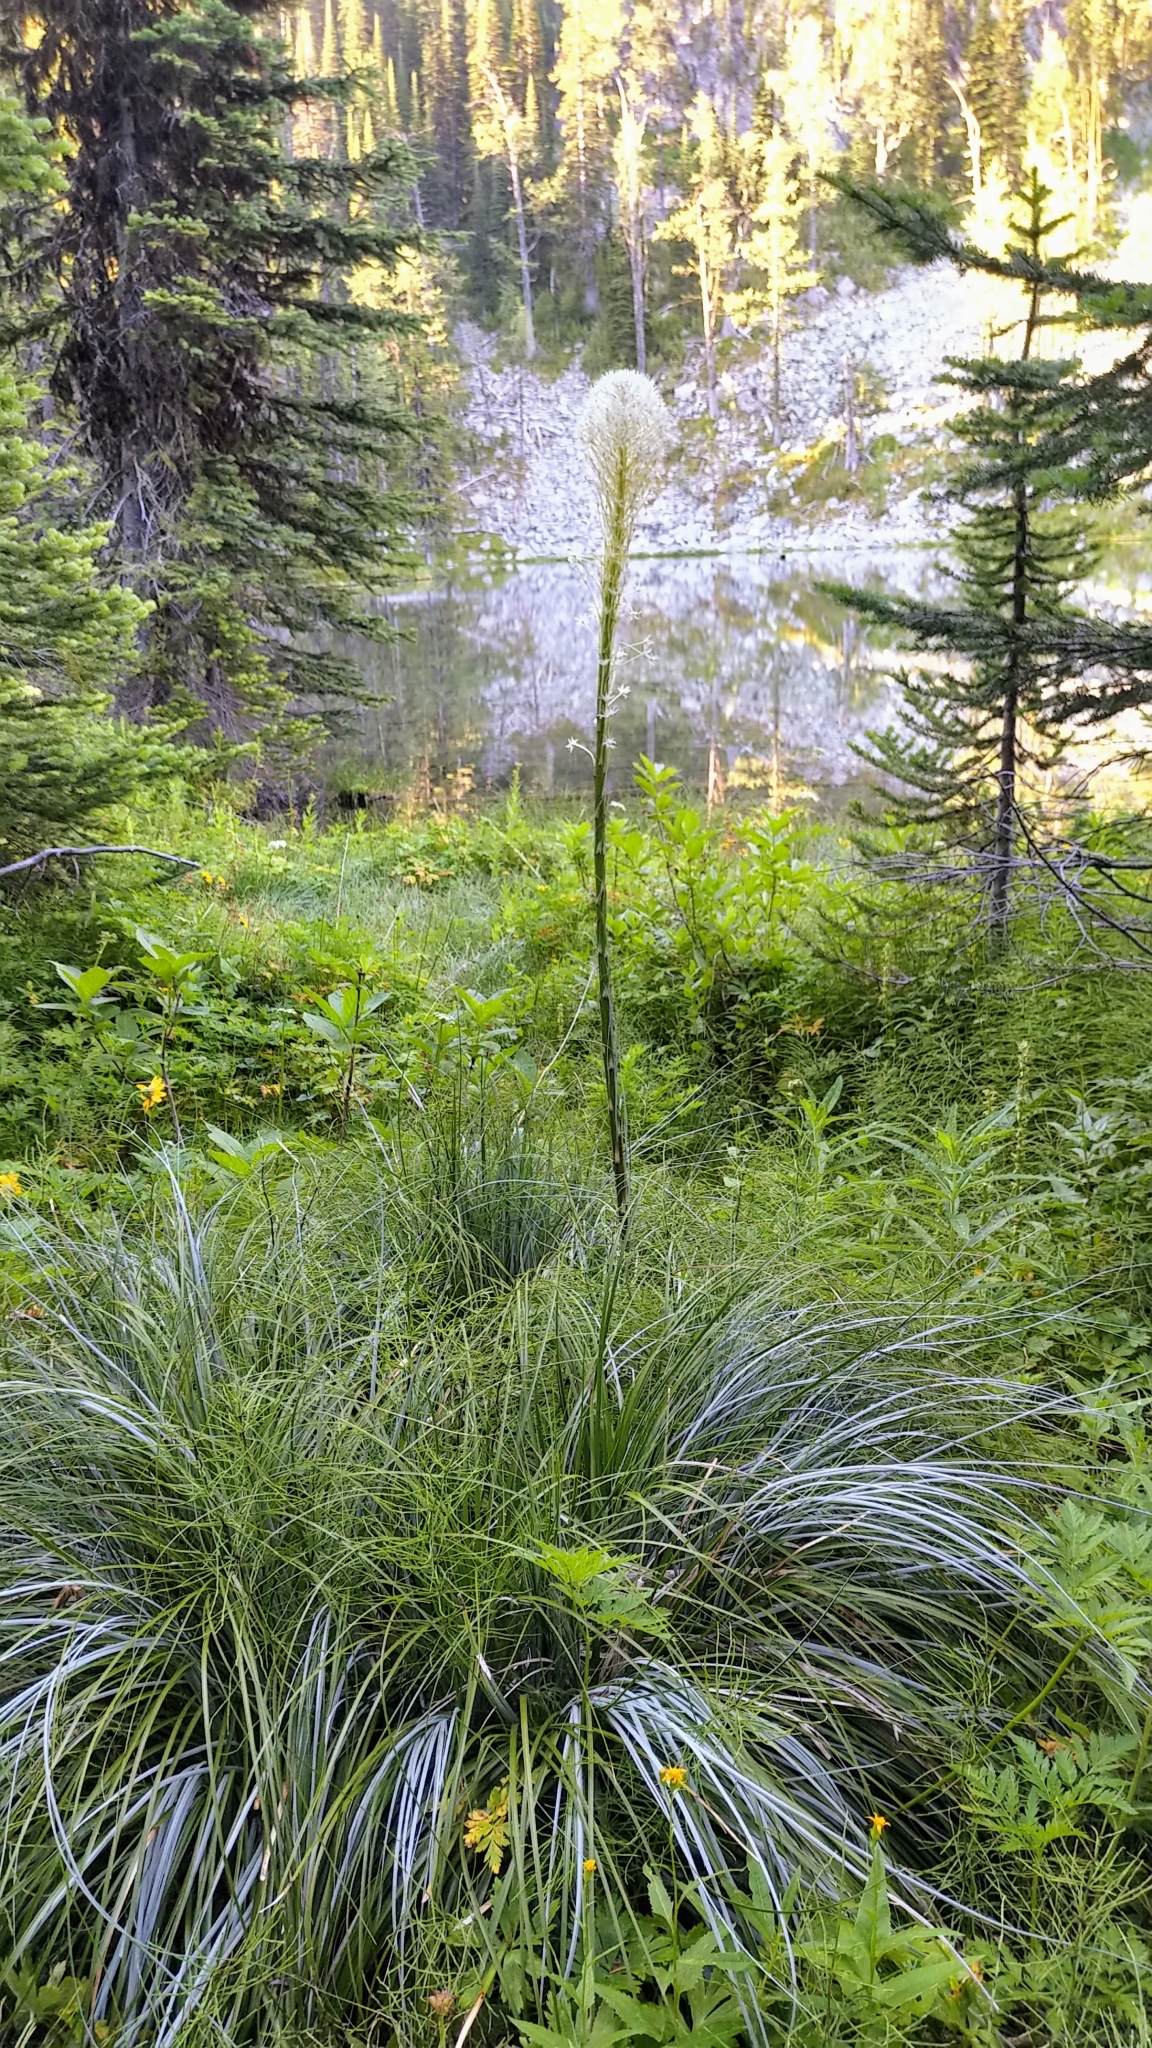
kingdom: Plantae
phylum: Tracheophyta
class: Liliopsida
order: Liliales
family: Melanthiaceae
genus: Xerophyllum
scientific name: Xerophyllum tenax
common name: Bear-grass
